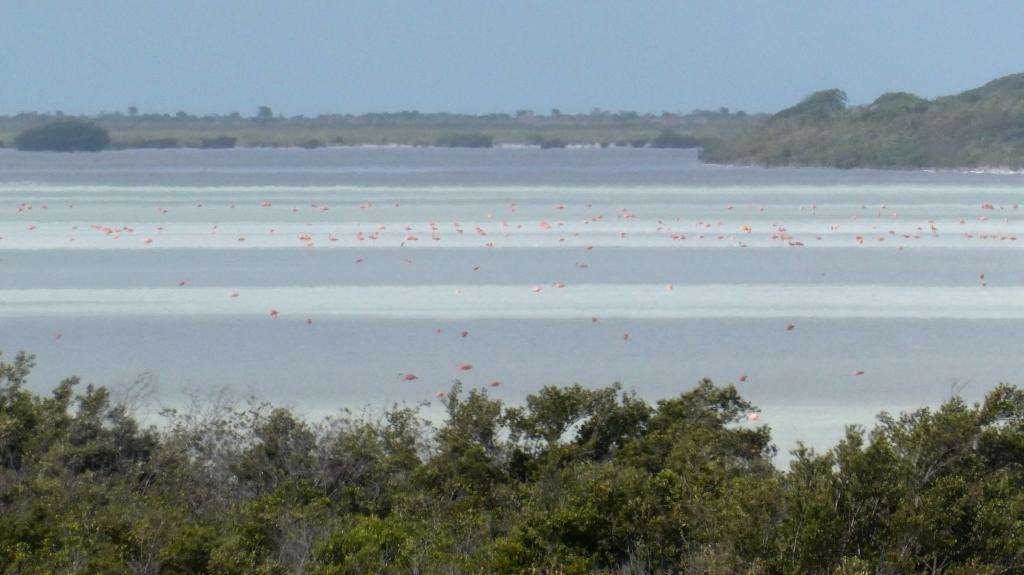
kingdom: Animalia
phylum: Chordata
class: Aves
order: Phoenicopteriformes
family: Phoenicopteridae
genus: Phoenicopterus
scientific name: Phoenicopterus ruber
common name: American flamingo
